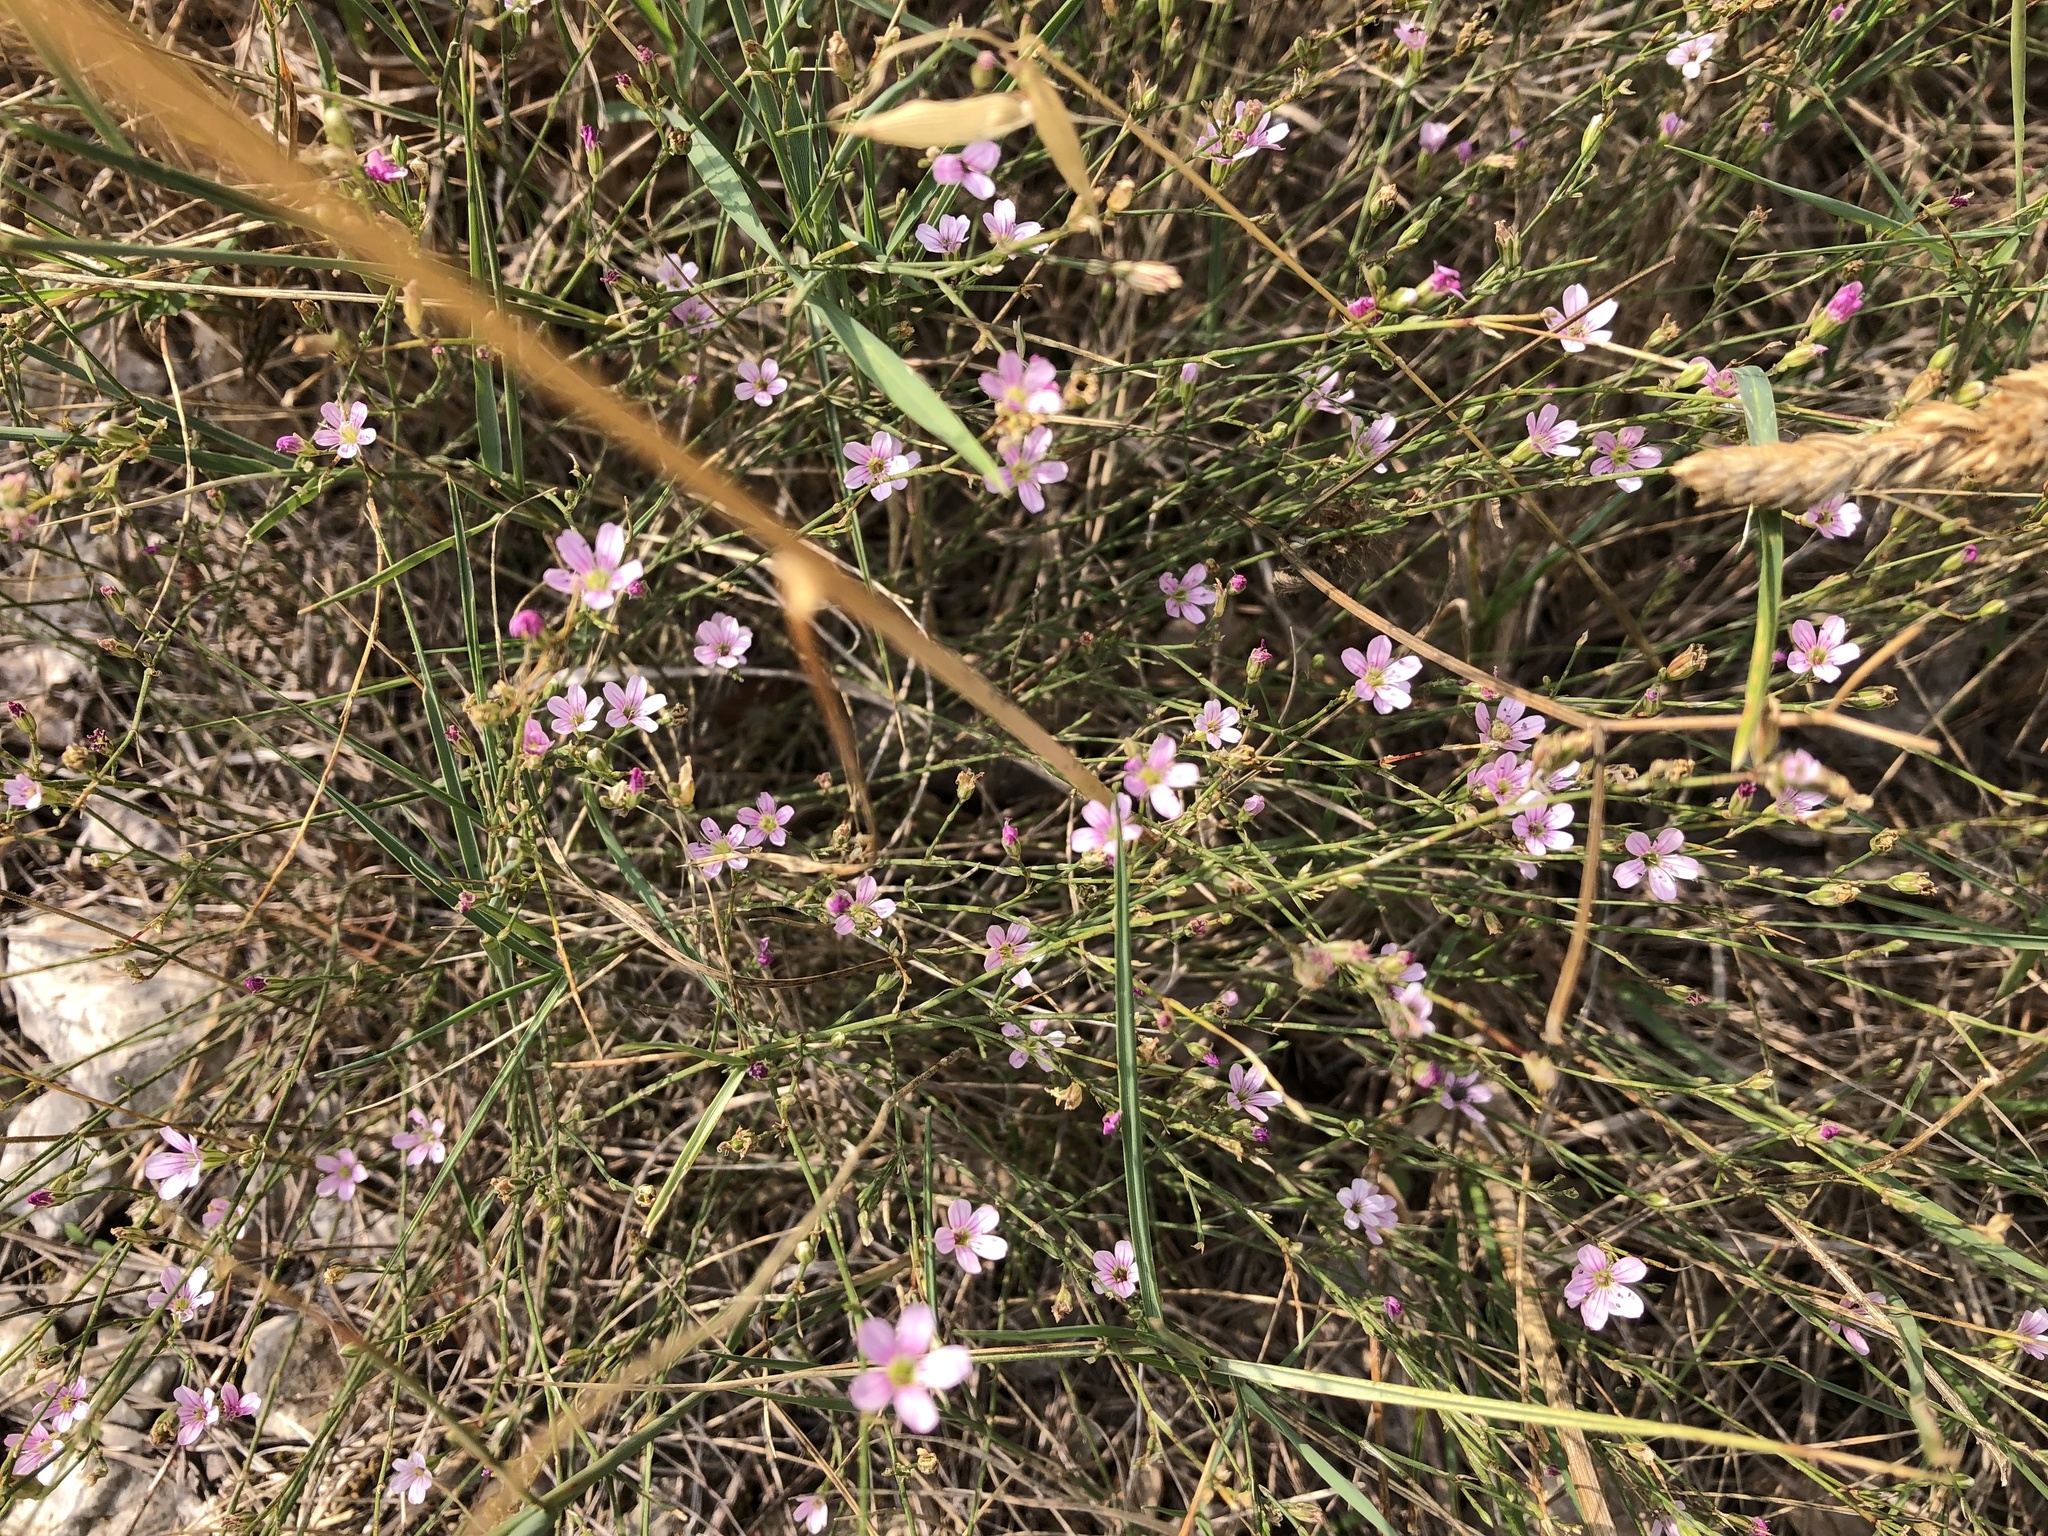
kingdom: Plantae
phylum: Tracheophyta
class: Magnoliopsida
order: Caryophyllales
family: Caryophyllaceae
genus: Petrorhagia
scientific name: Petrorhagia saxifraga
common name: Tunicflower
